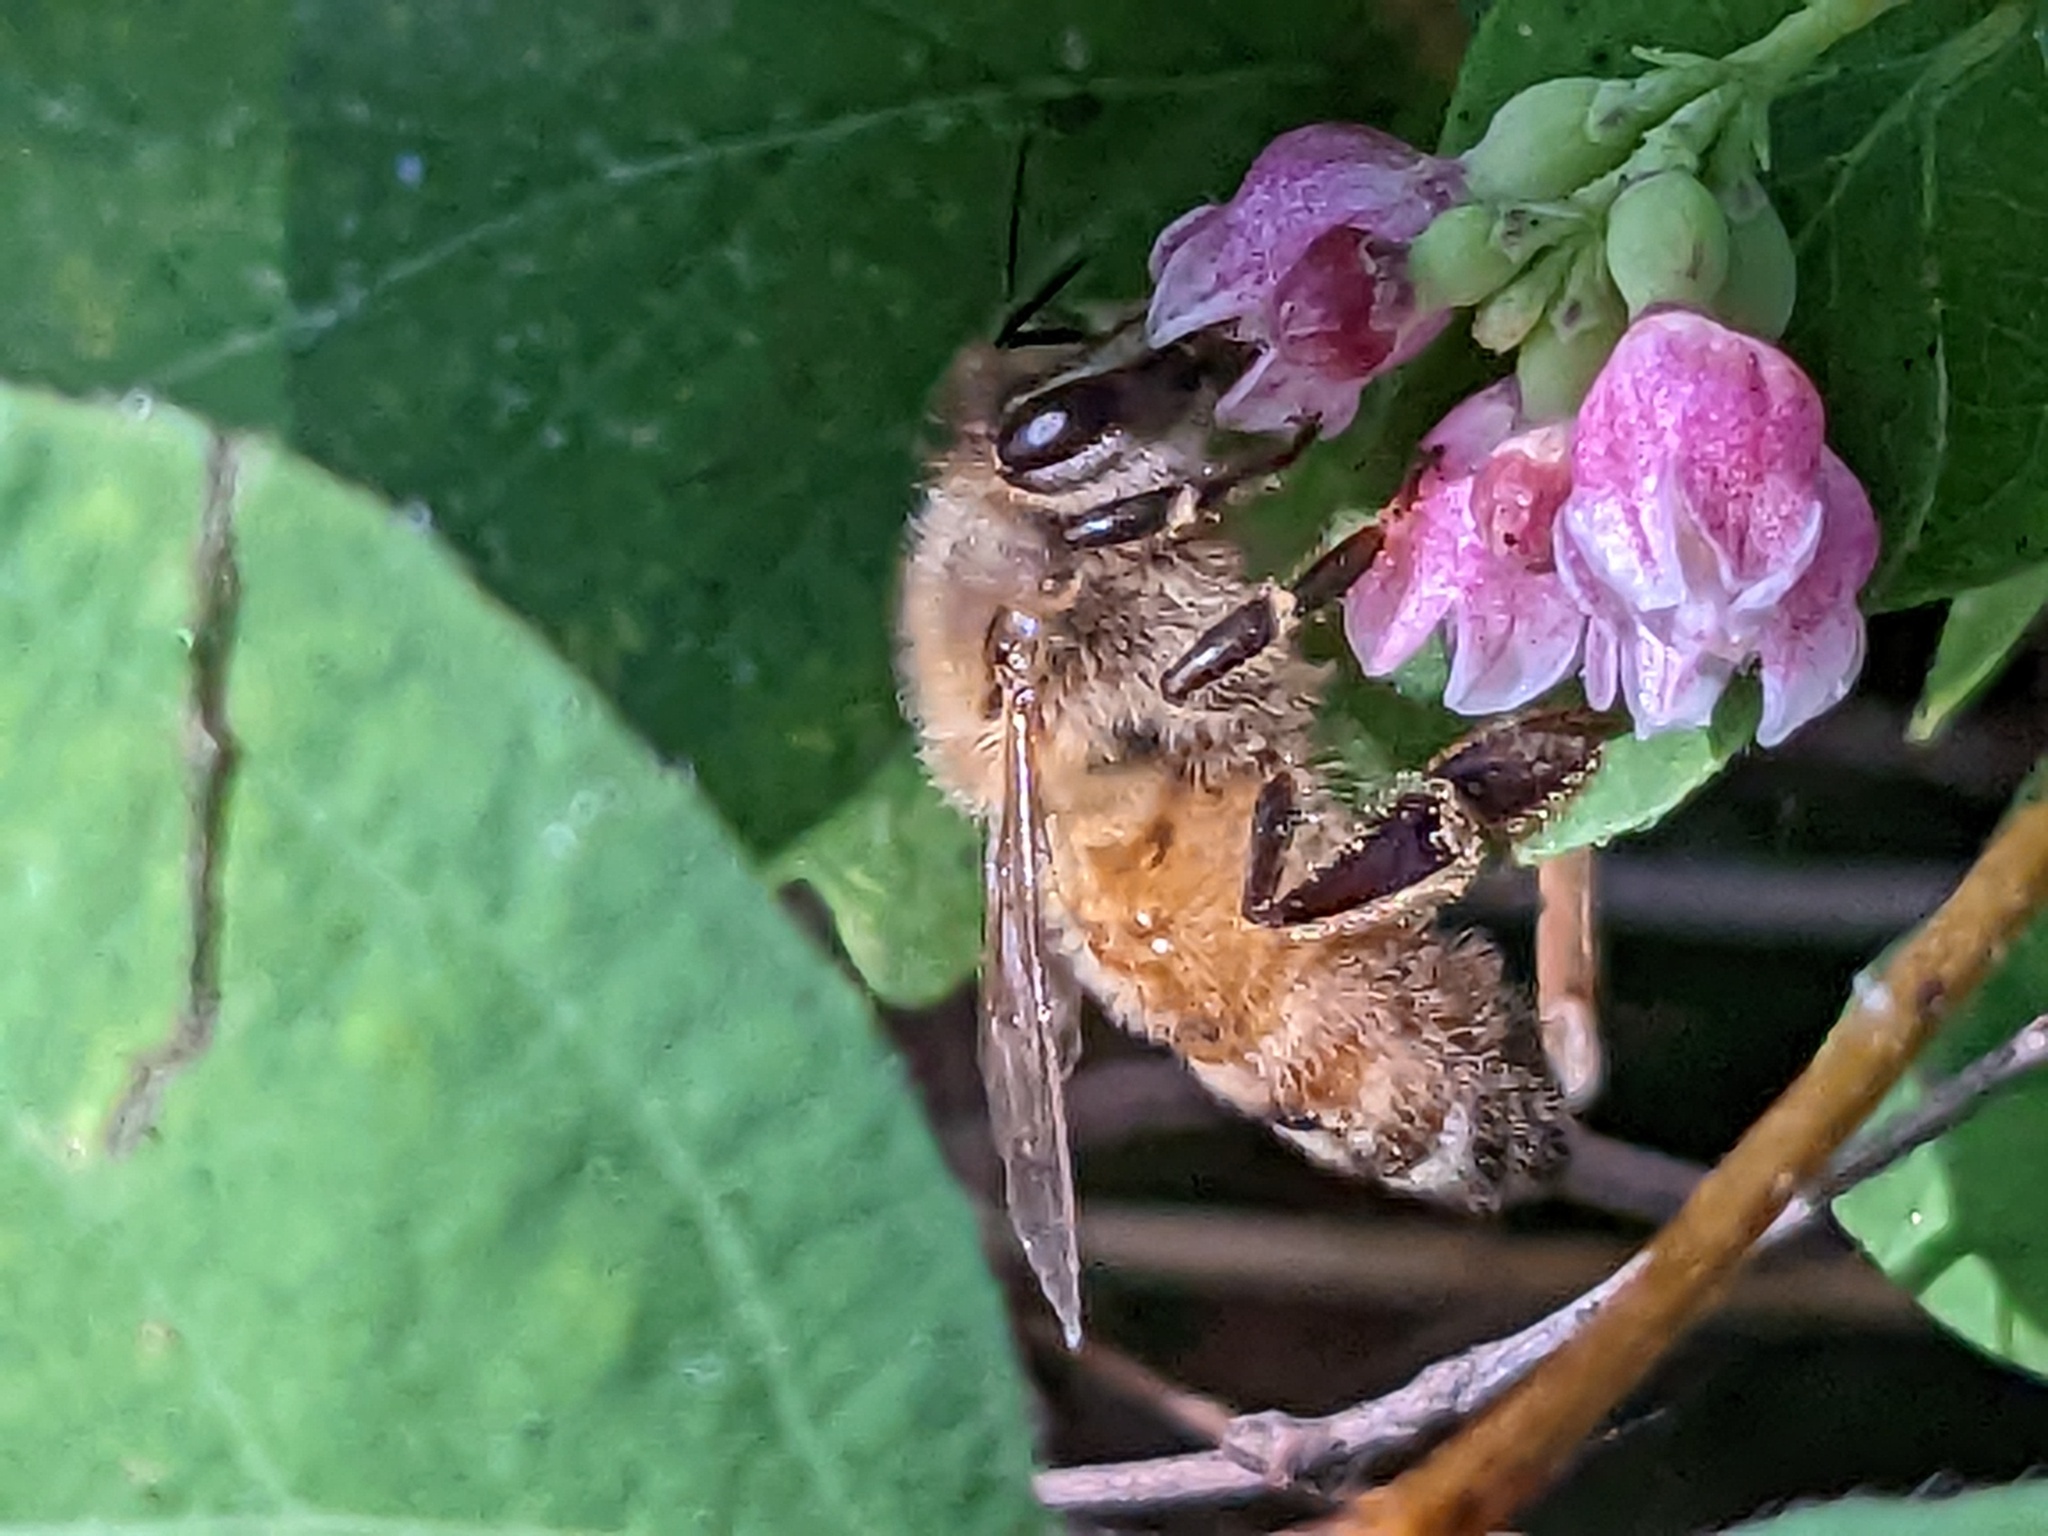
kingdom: Animalia
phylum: Arthropoda
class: Insecta
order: Hymenoptera
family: Apidae
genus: Apis
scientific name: Apis mellifera
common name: Honey bee
